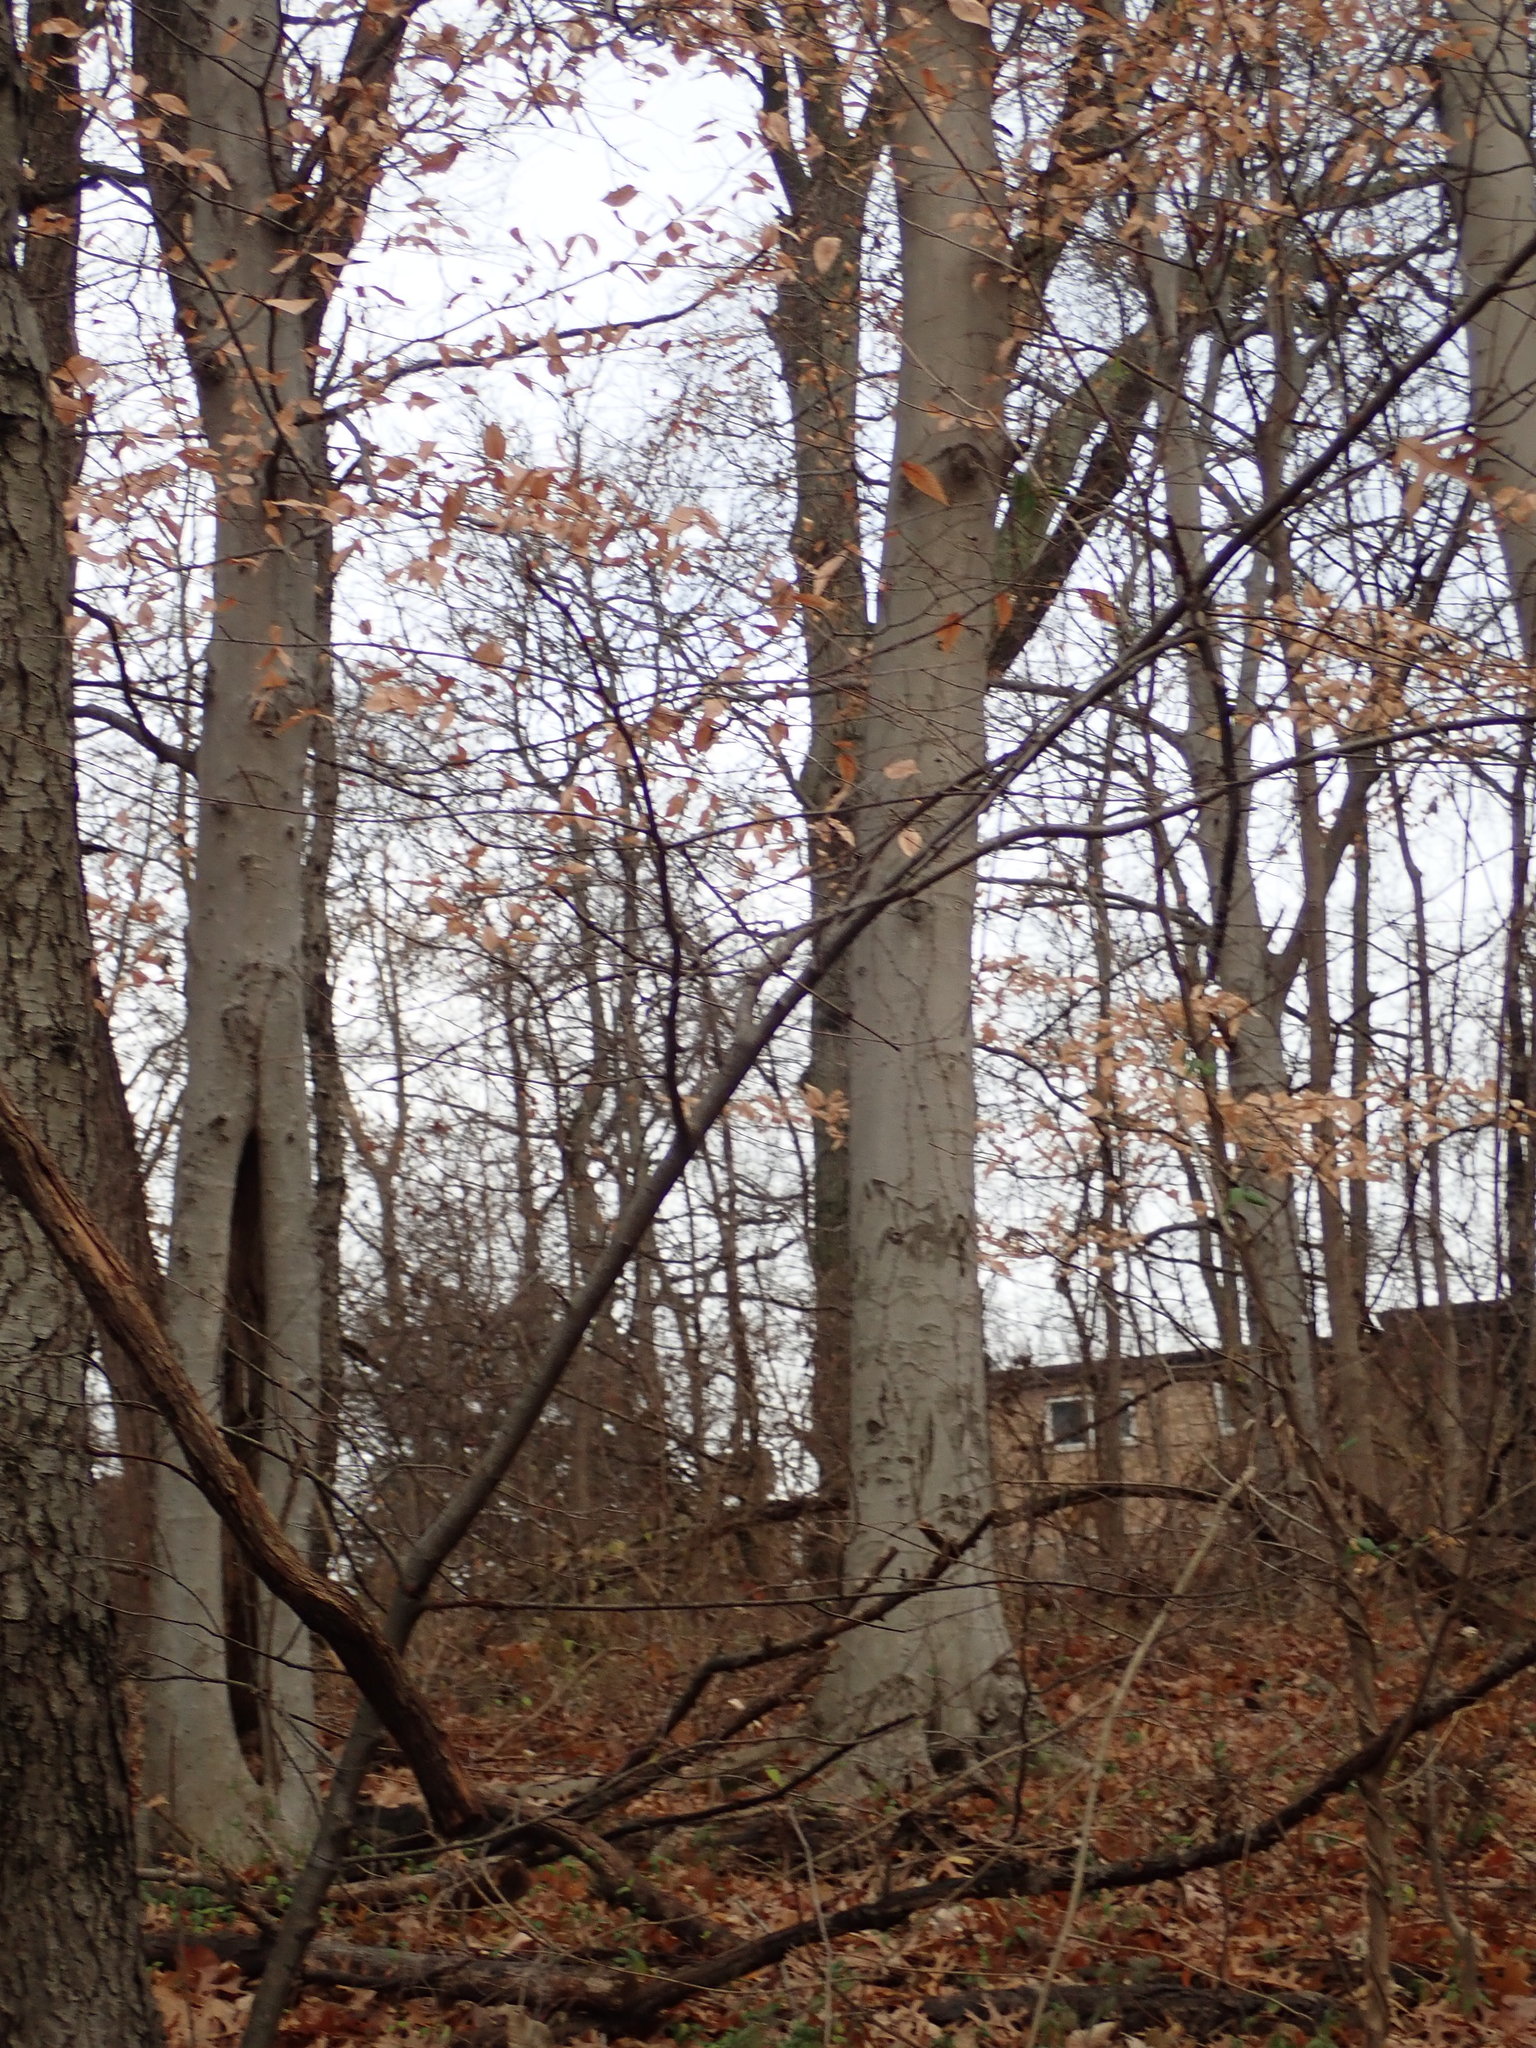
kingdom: Plantae
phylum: Tracheophyta
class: Magnoliopsida
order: Fagales
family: Fagaceae
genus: Fagus
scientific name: Fagus grandifolia
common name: American beech
